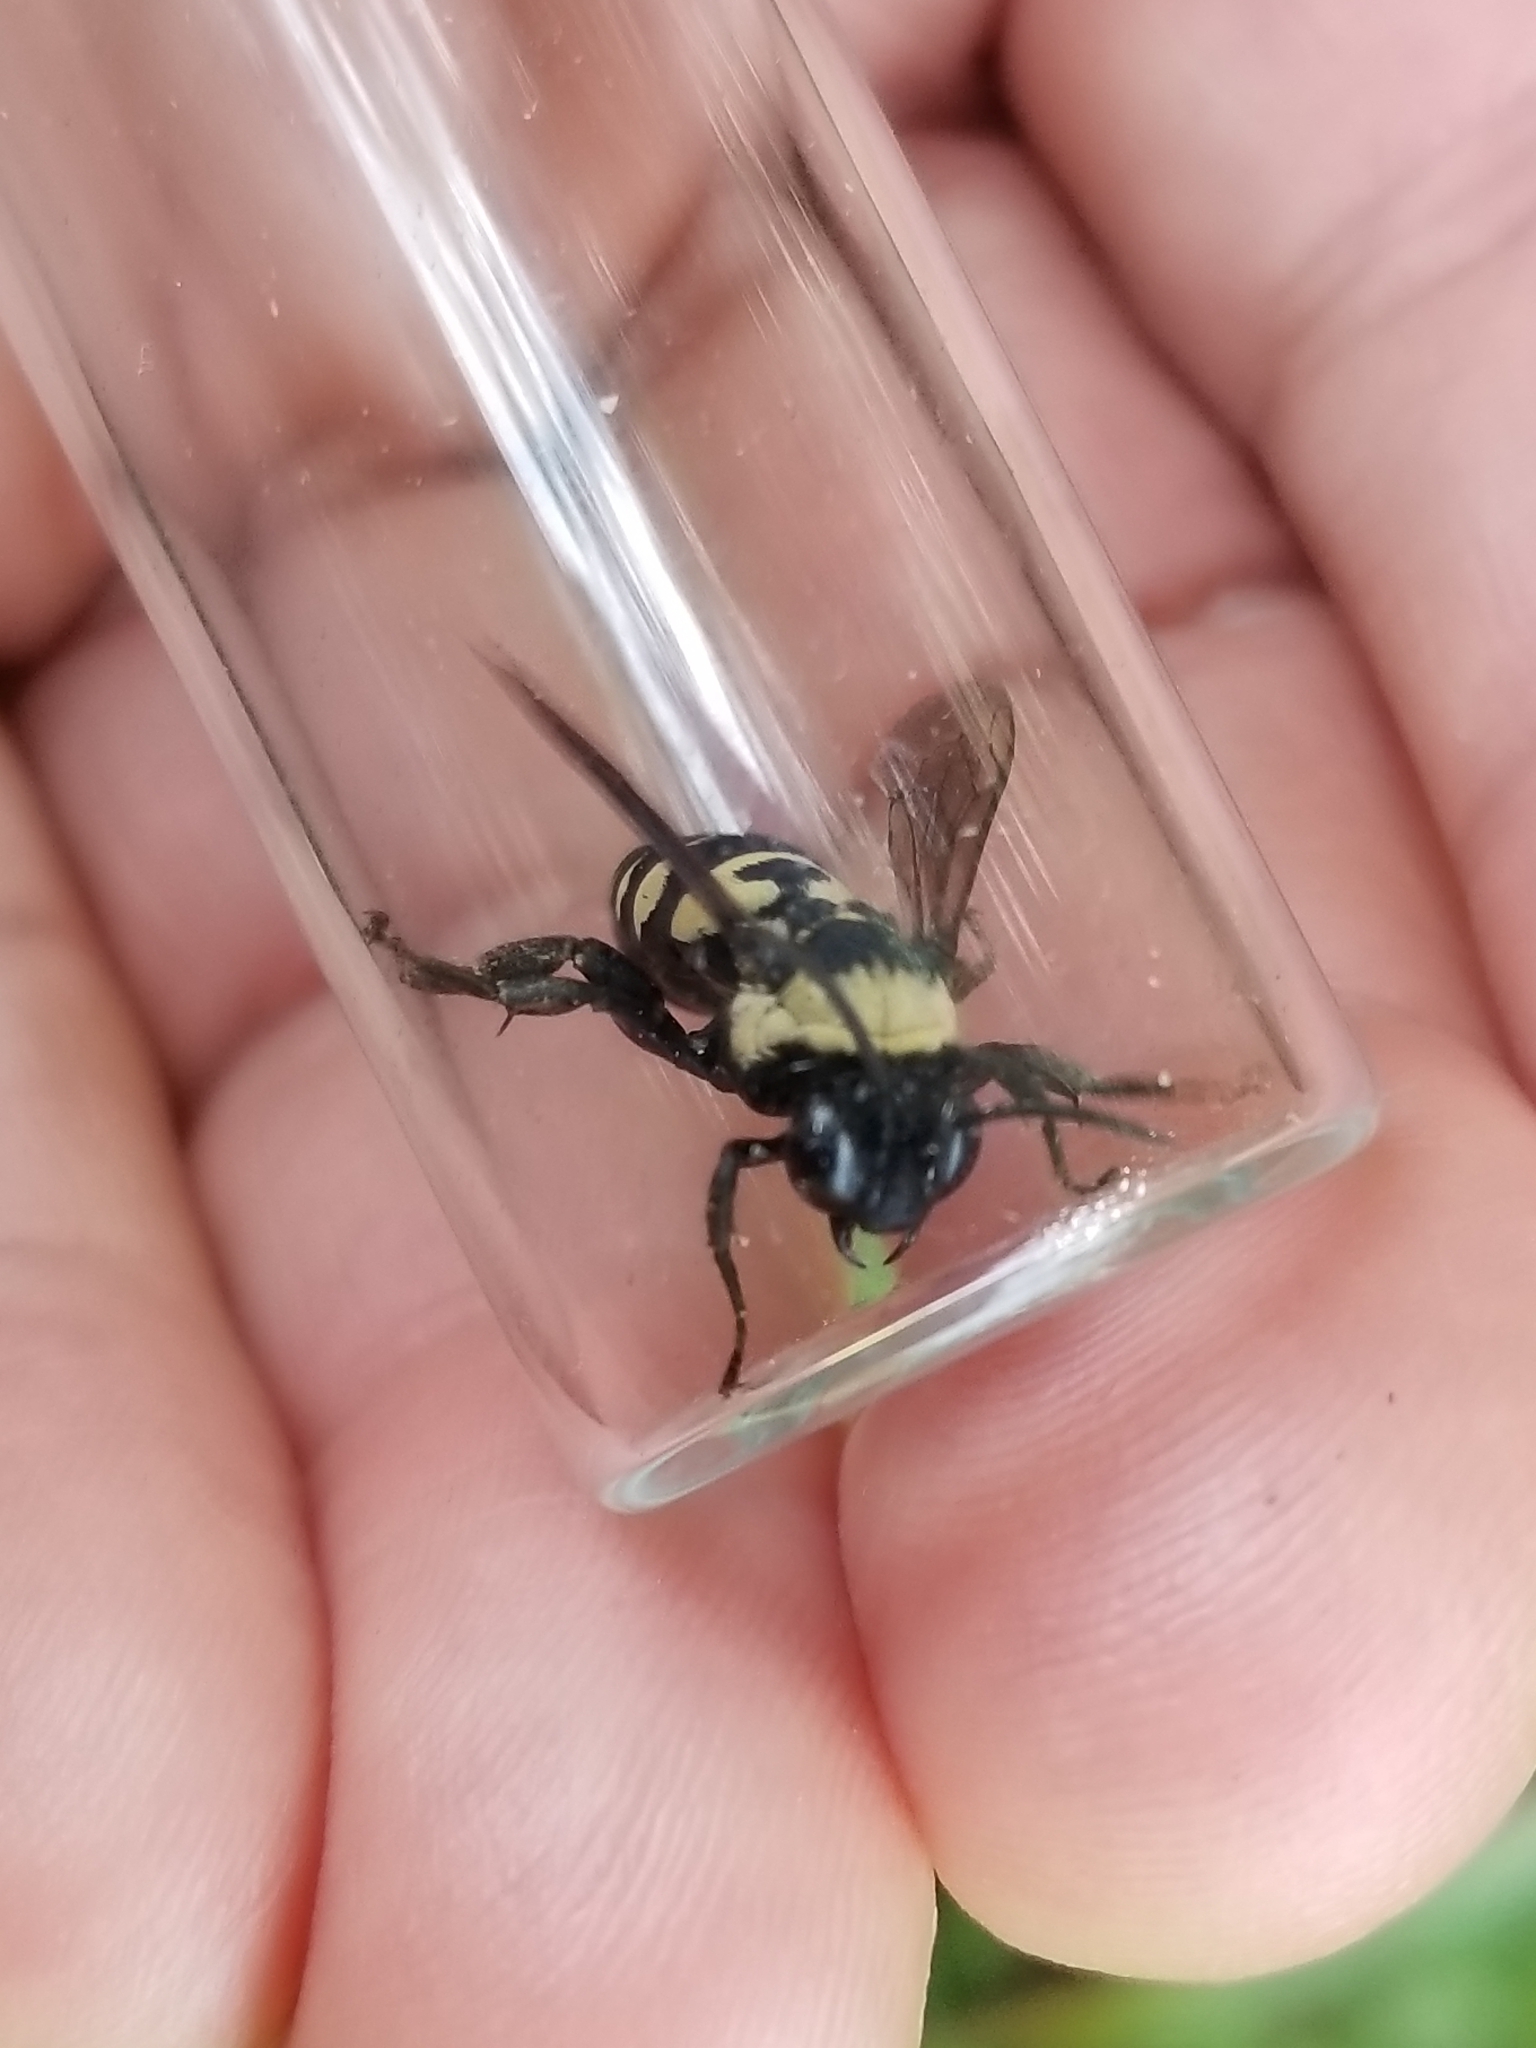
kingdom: Animalia
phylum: Arthropoda
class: Insecta
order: Hymenoptera
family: Apidae
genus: Triepeolus
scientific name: Triepeolus concavus
